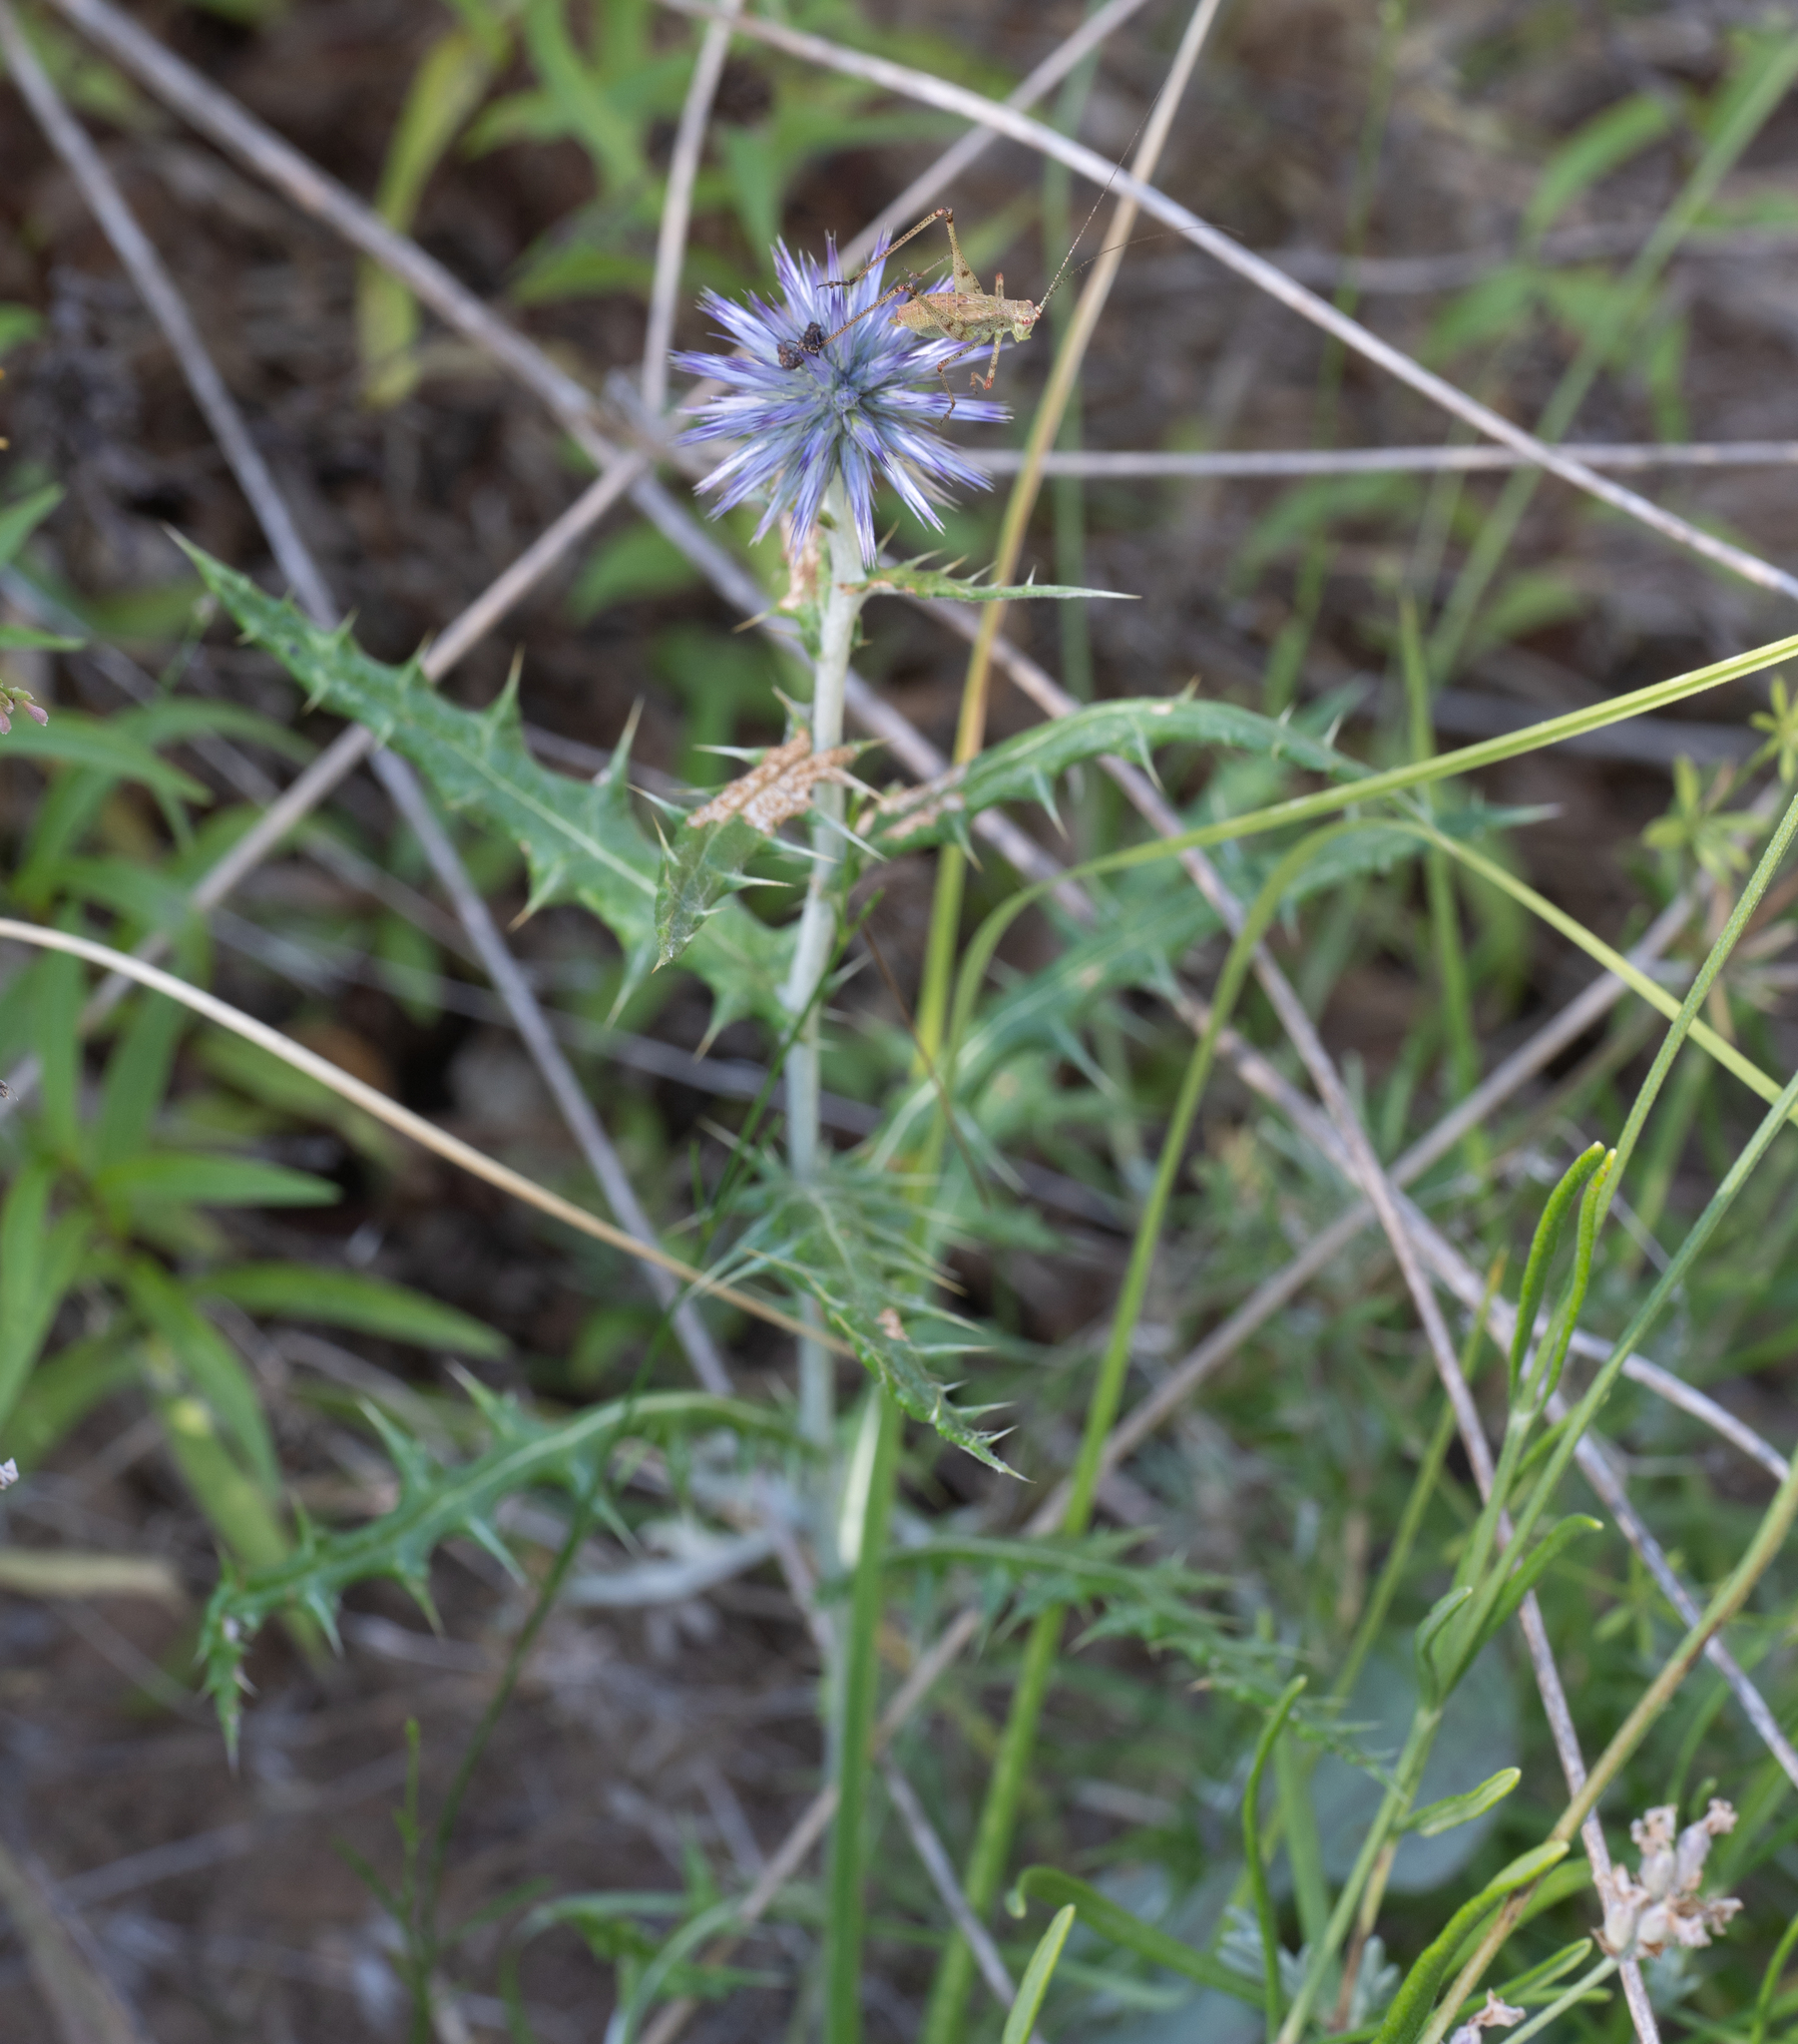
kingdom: Plantae
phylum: Tracheophyta
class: Magnoliopsida
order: Asterales
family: Asteraceae
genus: Echinops
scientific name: Echinops ritro
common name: Globe thistle
